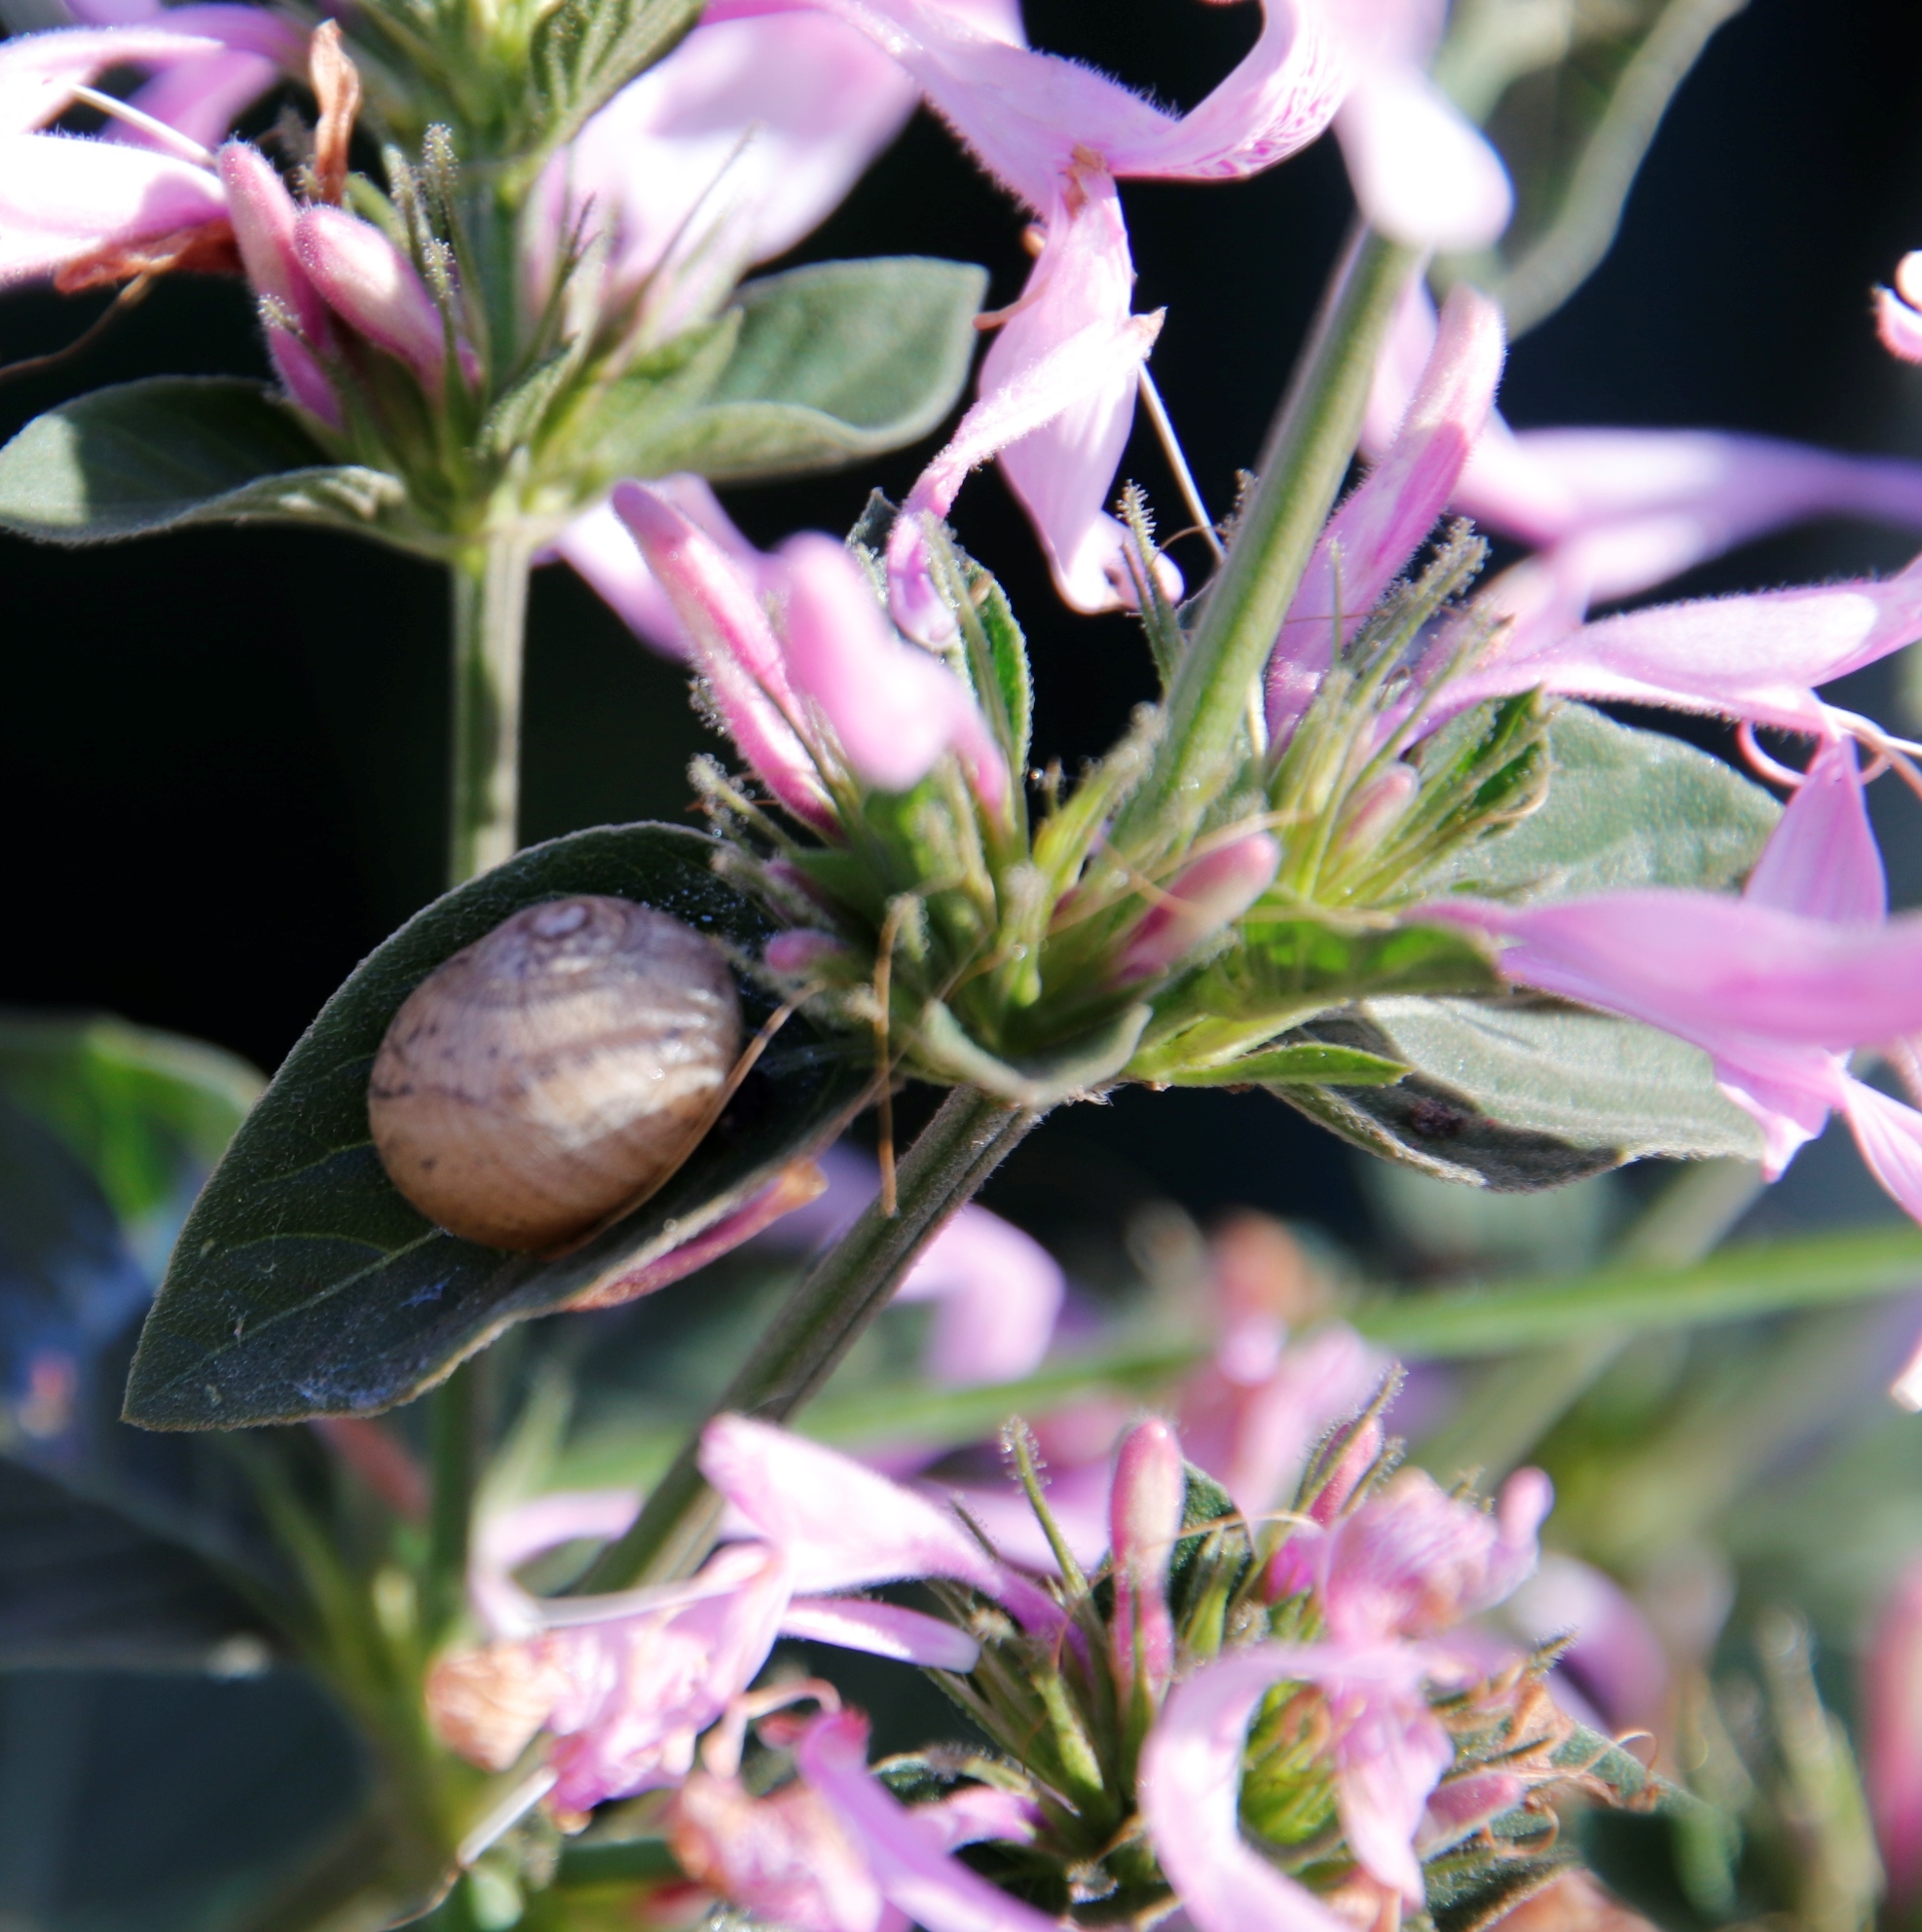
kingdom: Plantae
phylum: Tracheophyta
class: Magnoliopsida
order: Lamiales
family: Acanthaceae
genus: Hypoestes
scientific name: Hypoestes aristata
